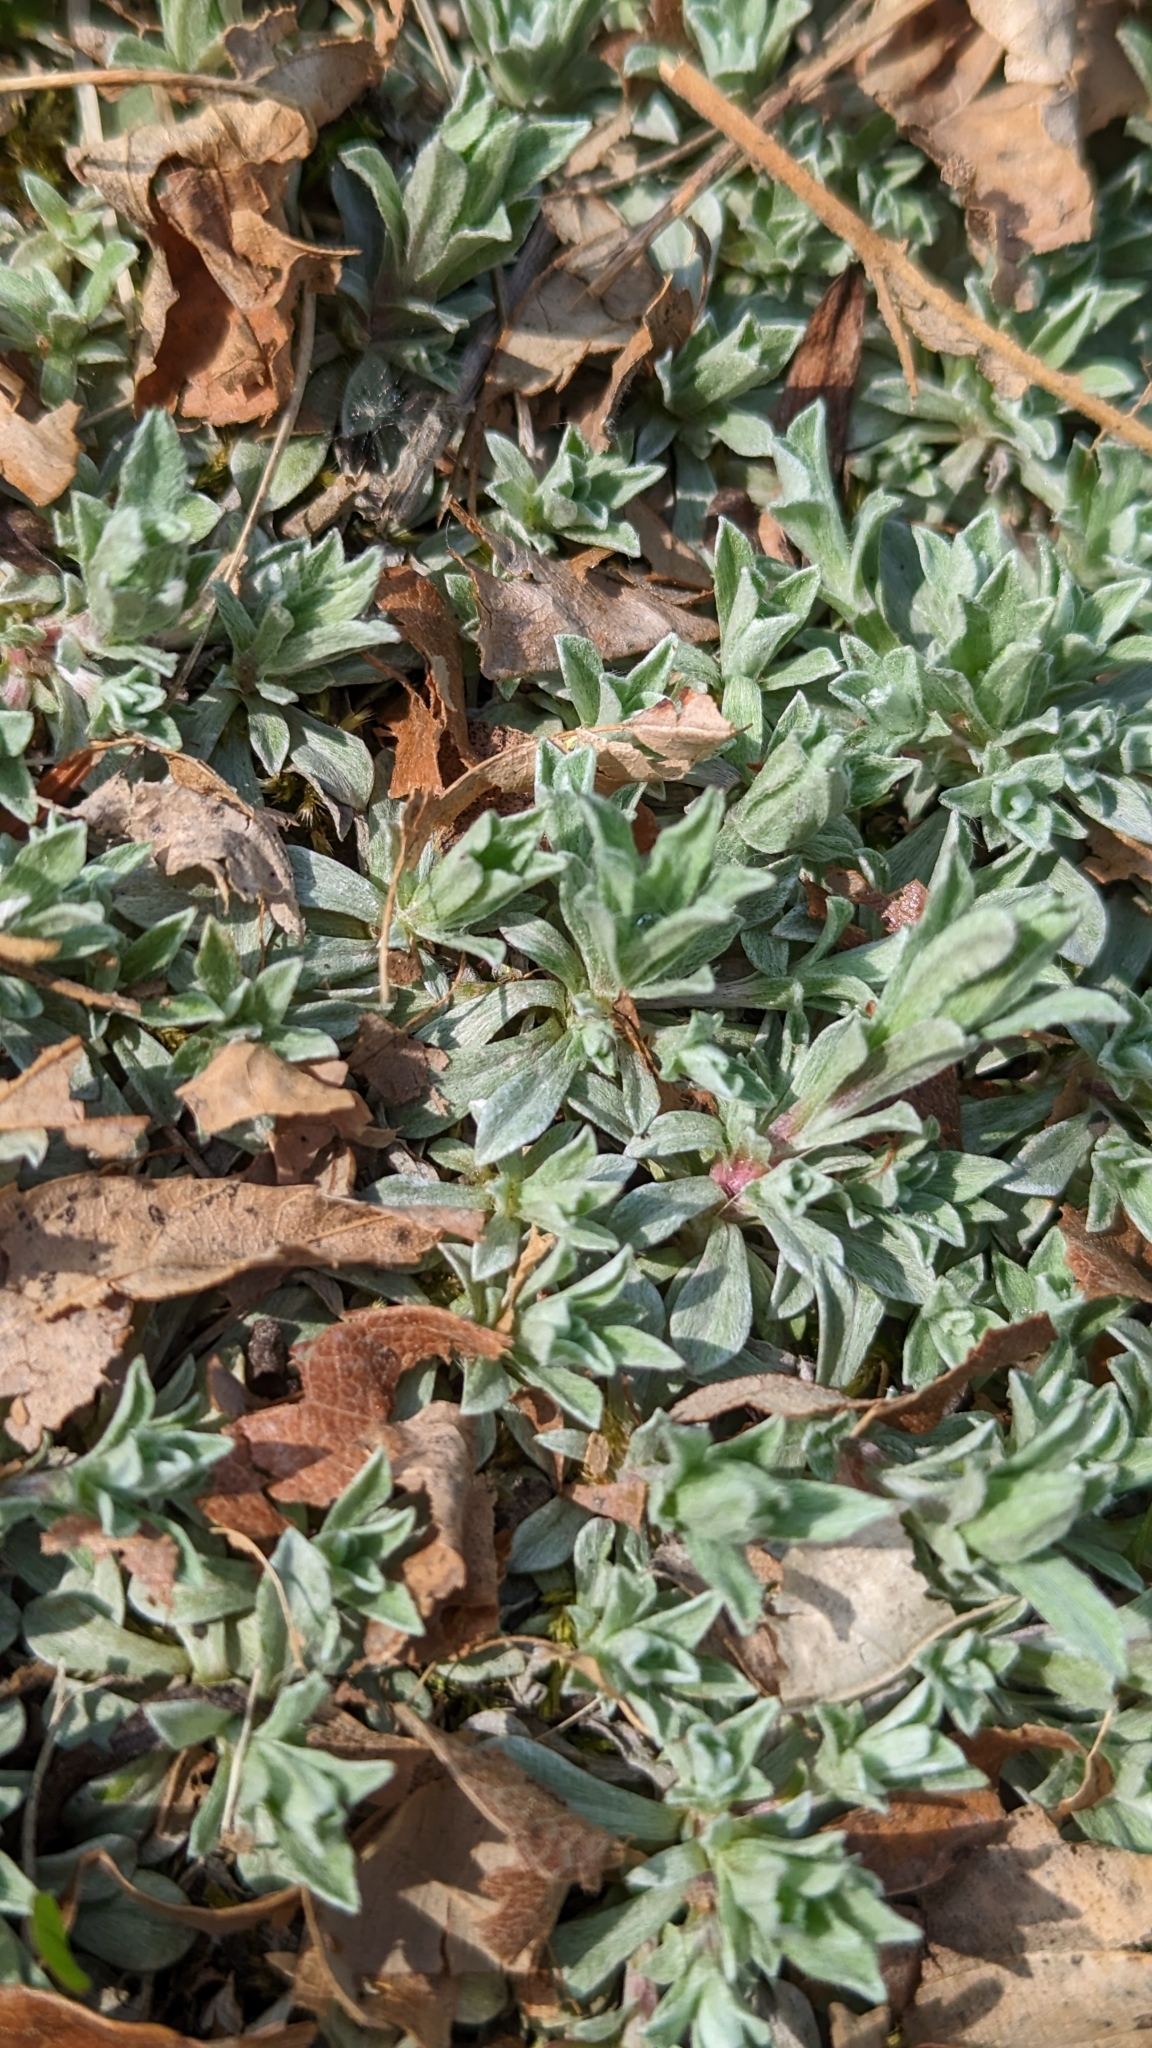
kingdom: Plantae
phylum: Tracheophyta
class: Magnoliopsida
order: Asterales
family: Asteraceae
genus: Antennaria
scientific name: Antennaria parvifolia
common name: Nuttall's pussytoes
